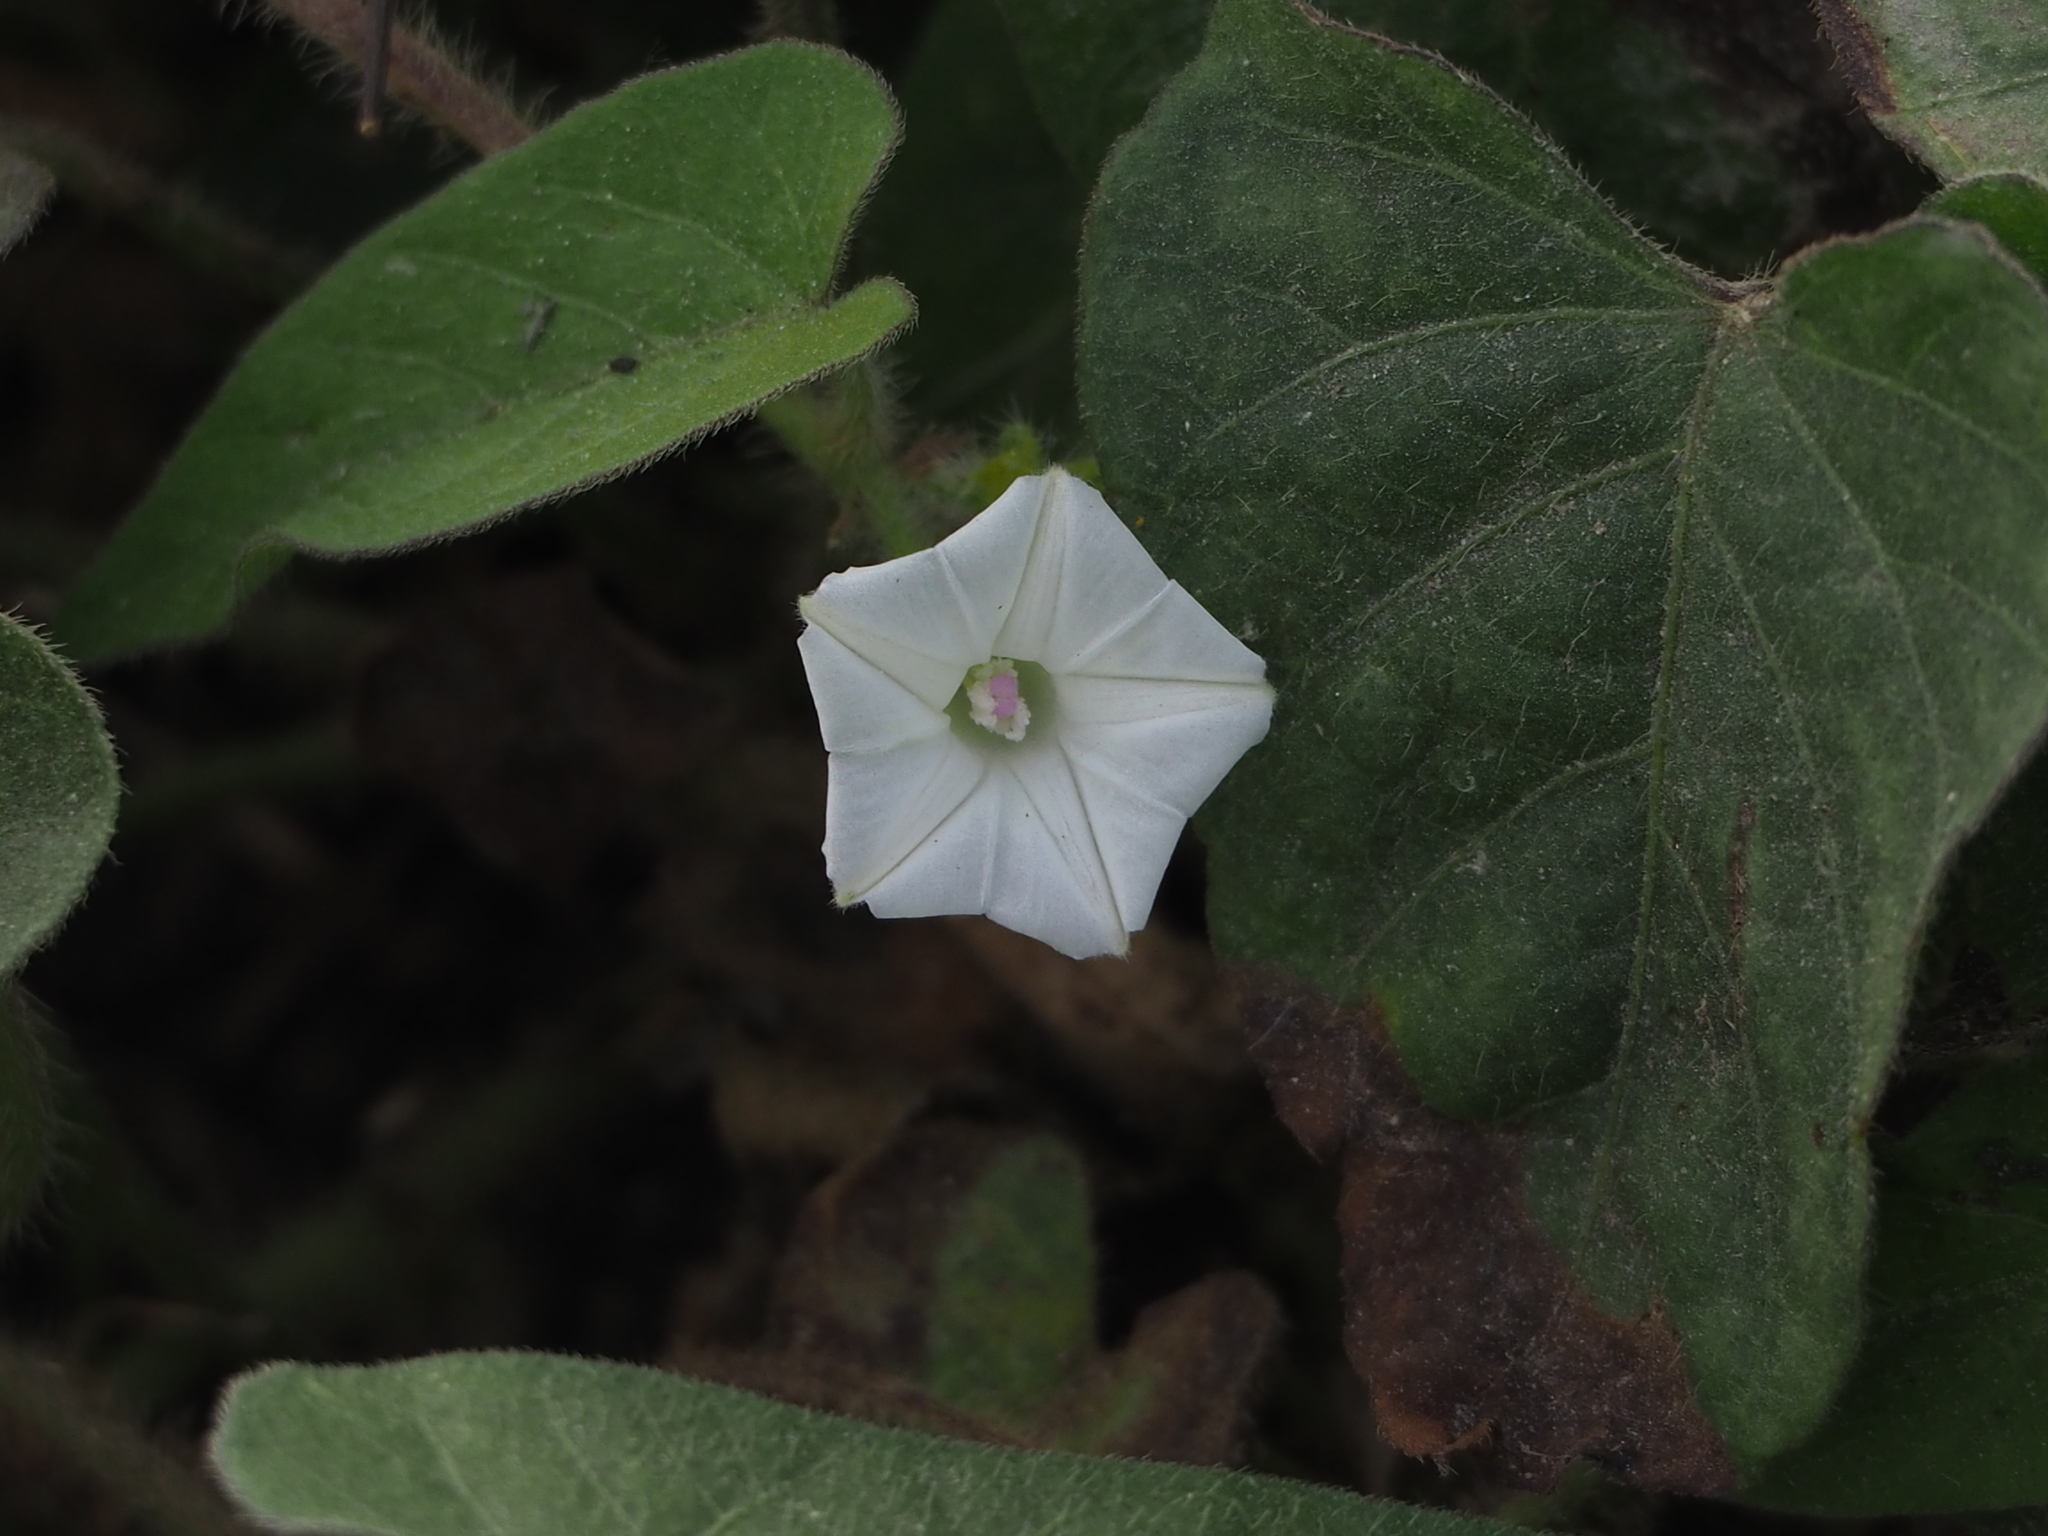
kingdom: Plantae
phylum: Tracheophyta
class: Magnoliopsida
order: Solanales
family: Convolvulaceae
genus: Ipomoea
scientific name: Ipomoea biflora
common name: Bellvine
